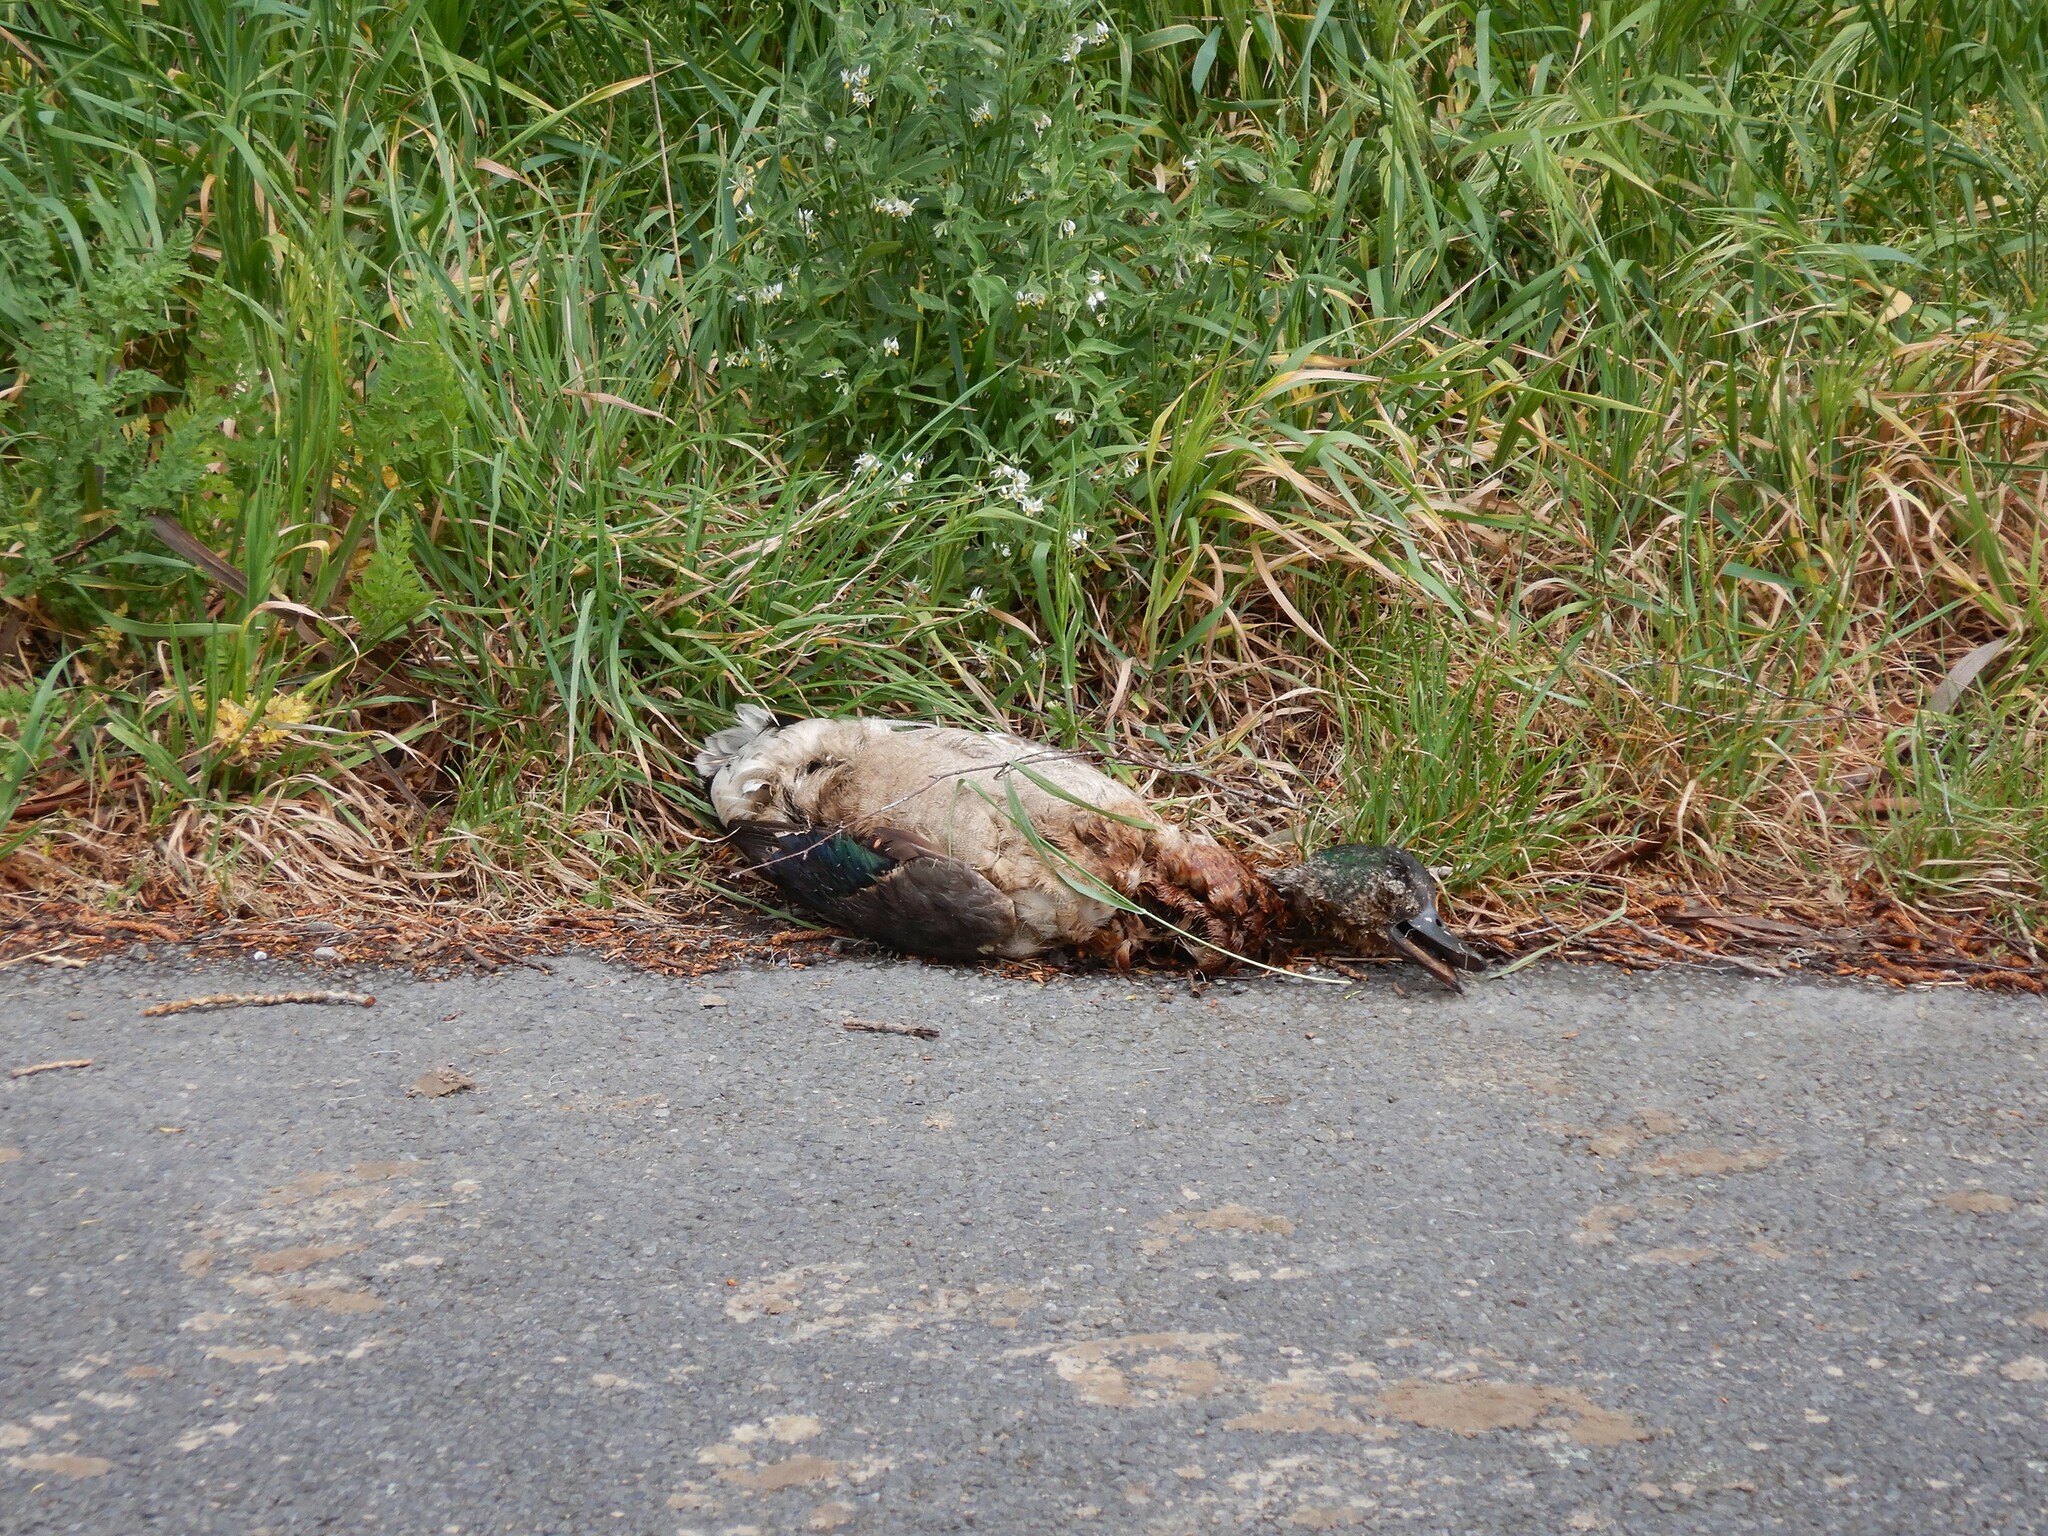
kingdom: Animalia
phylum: Chordata
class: Aves
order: Anseriformes
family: Anatidae
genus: Anas
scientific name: Anas platyrhynchos
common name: Mallard
